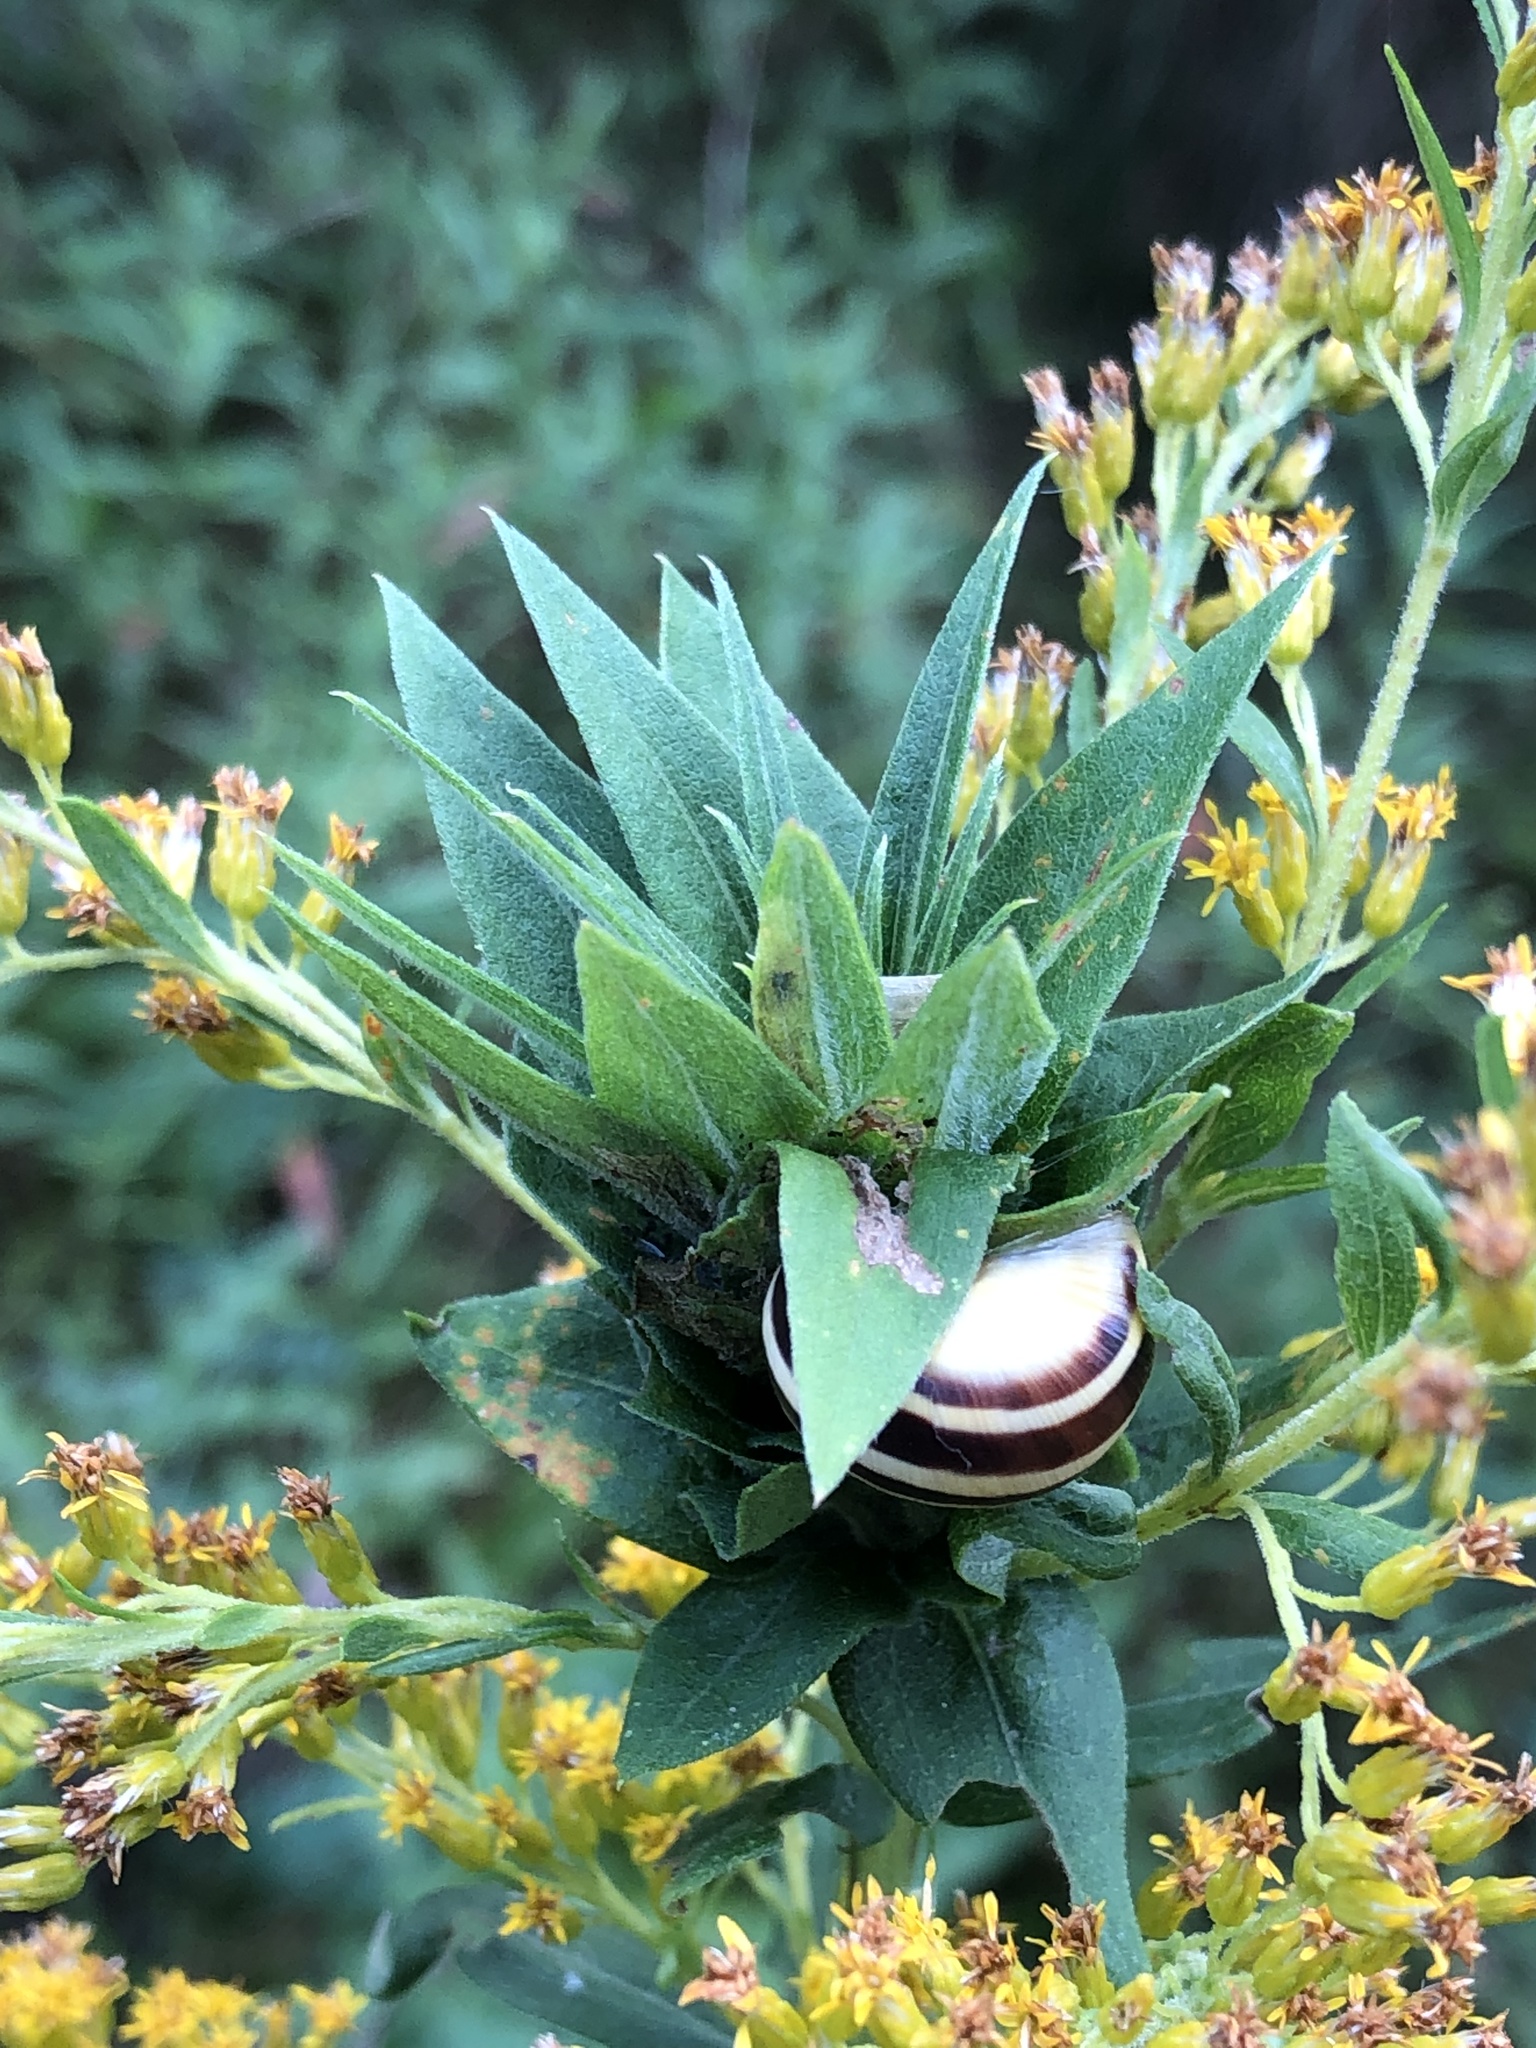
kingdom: Animalia
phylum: Mollusca
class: Gastropoda
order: Stylommatophora
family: Helicidae
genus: Cepaea
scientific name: Cepaea nemoralis
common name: Grovesnail
